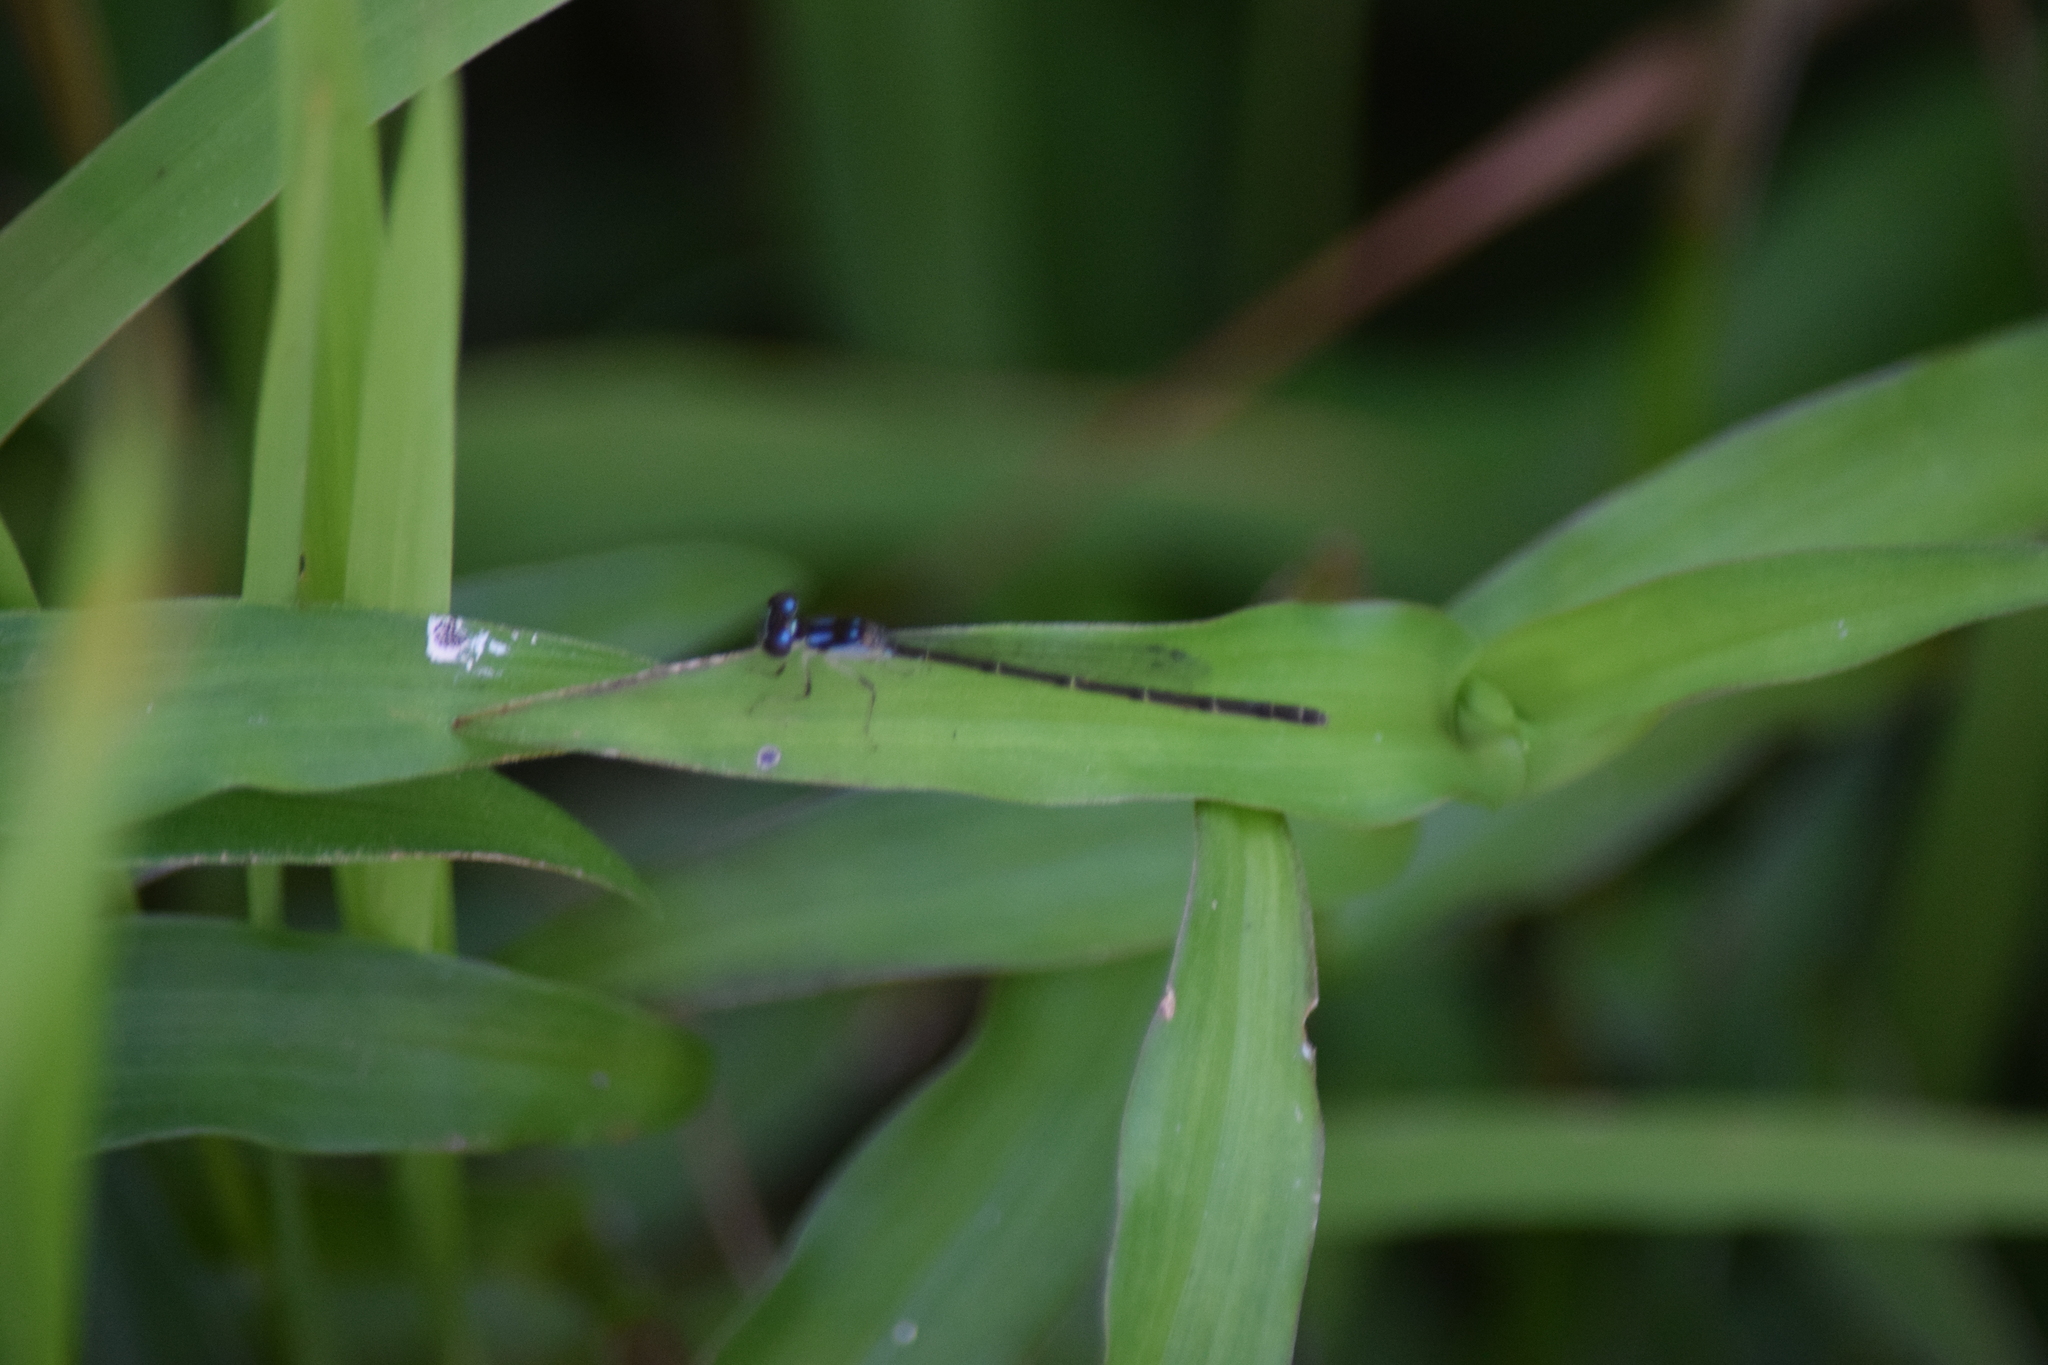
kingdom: Animalia
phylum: Arthropoda
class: Insecta
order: Odonata
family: Coenagrionidae
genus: Ischnura
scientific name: Ischnura posita
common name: Fragile forktail
